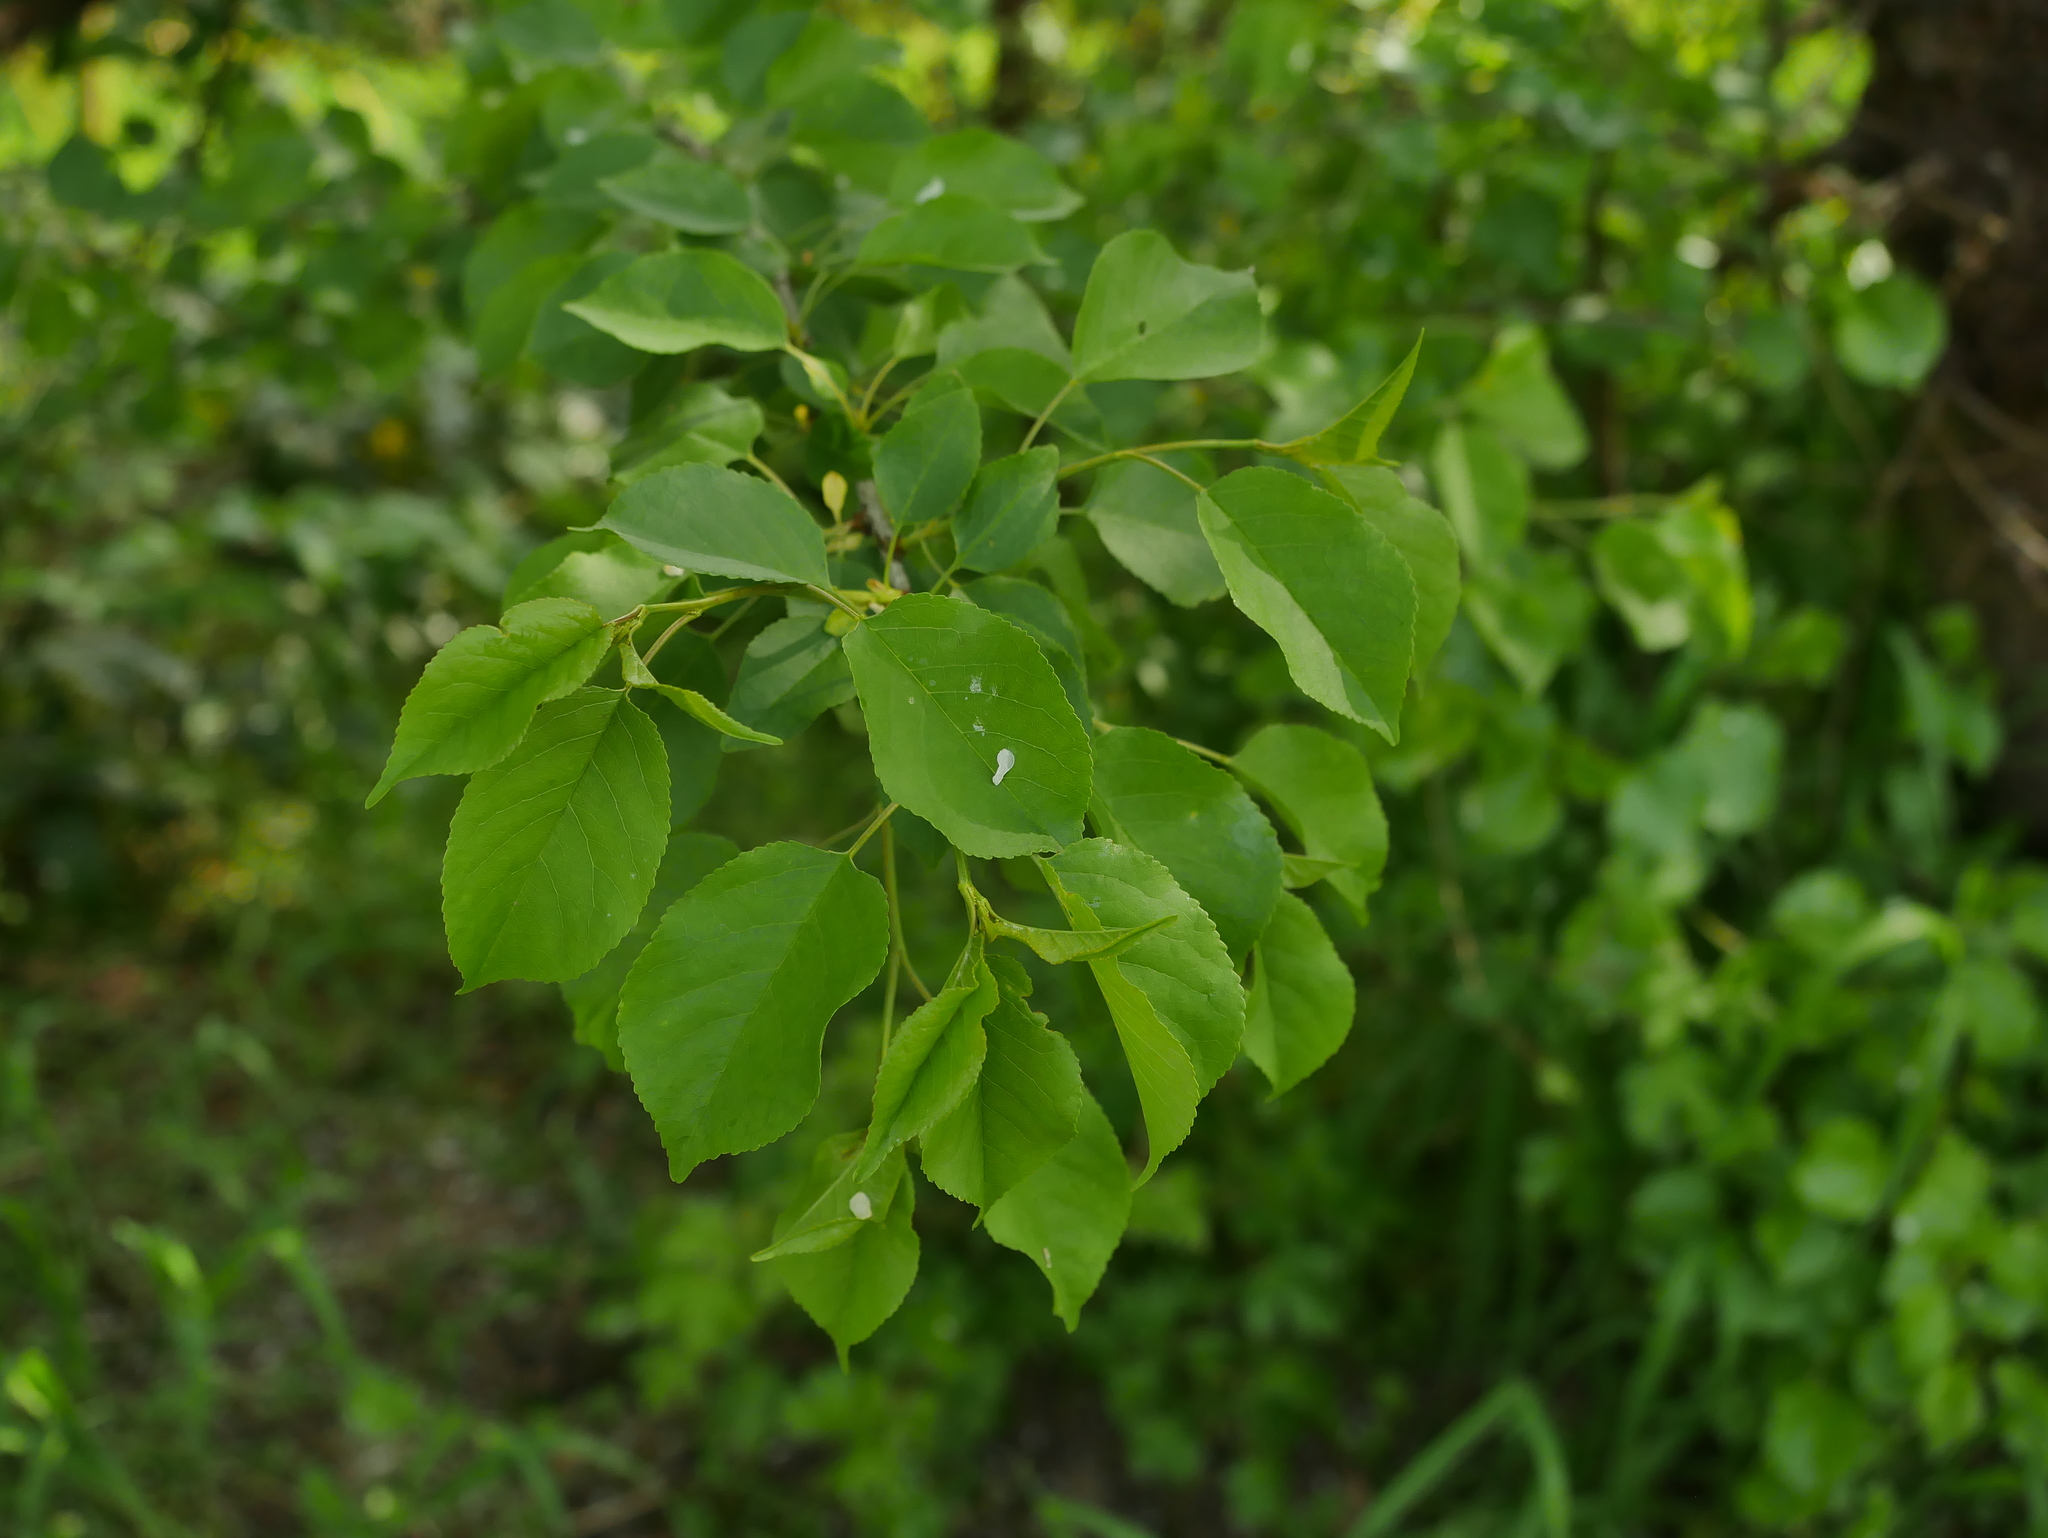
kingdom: Plantae
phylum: Tracheophyta
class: Magnoliopsida
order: Rosales
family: Rosaceae
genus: Prunus
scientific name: Prunus mahaleb
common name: Mahaleb cherry
